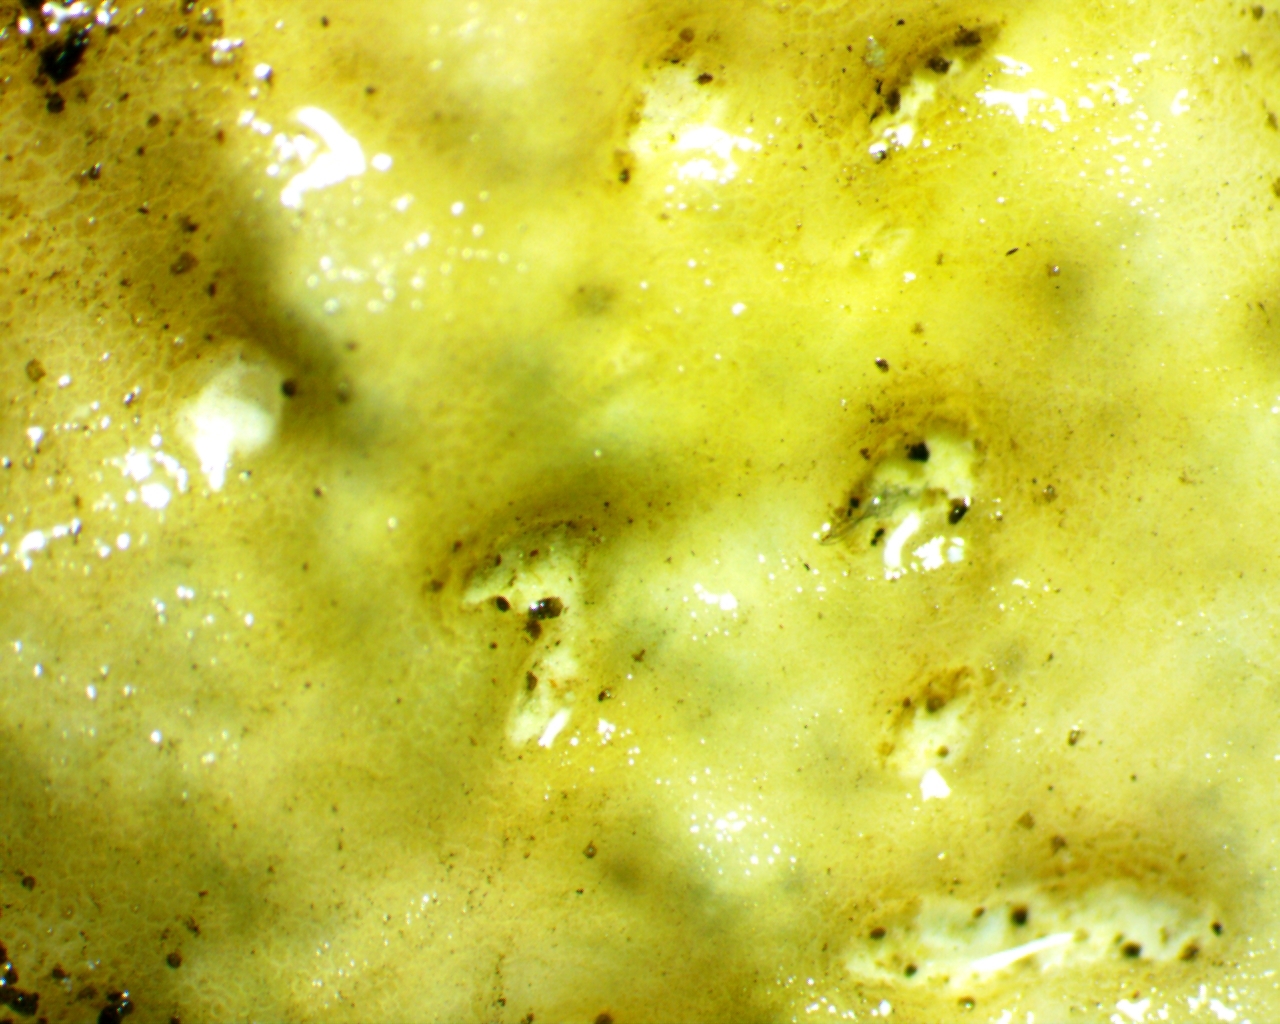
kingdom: Fungi
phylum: Ascomycota
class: Lecanoromycetes
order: Umbilicariales
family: Umbilicariaceae
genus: Lasallia
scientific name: Lasallia papulosa
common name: Common toadskin lichen
